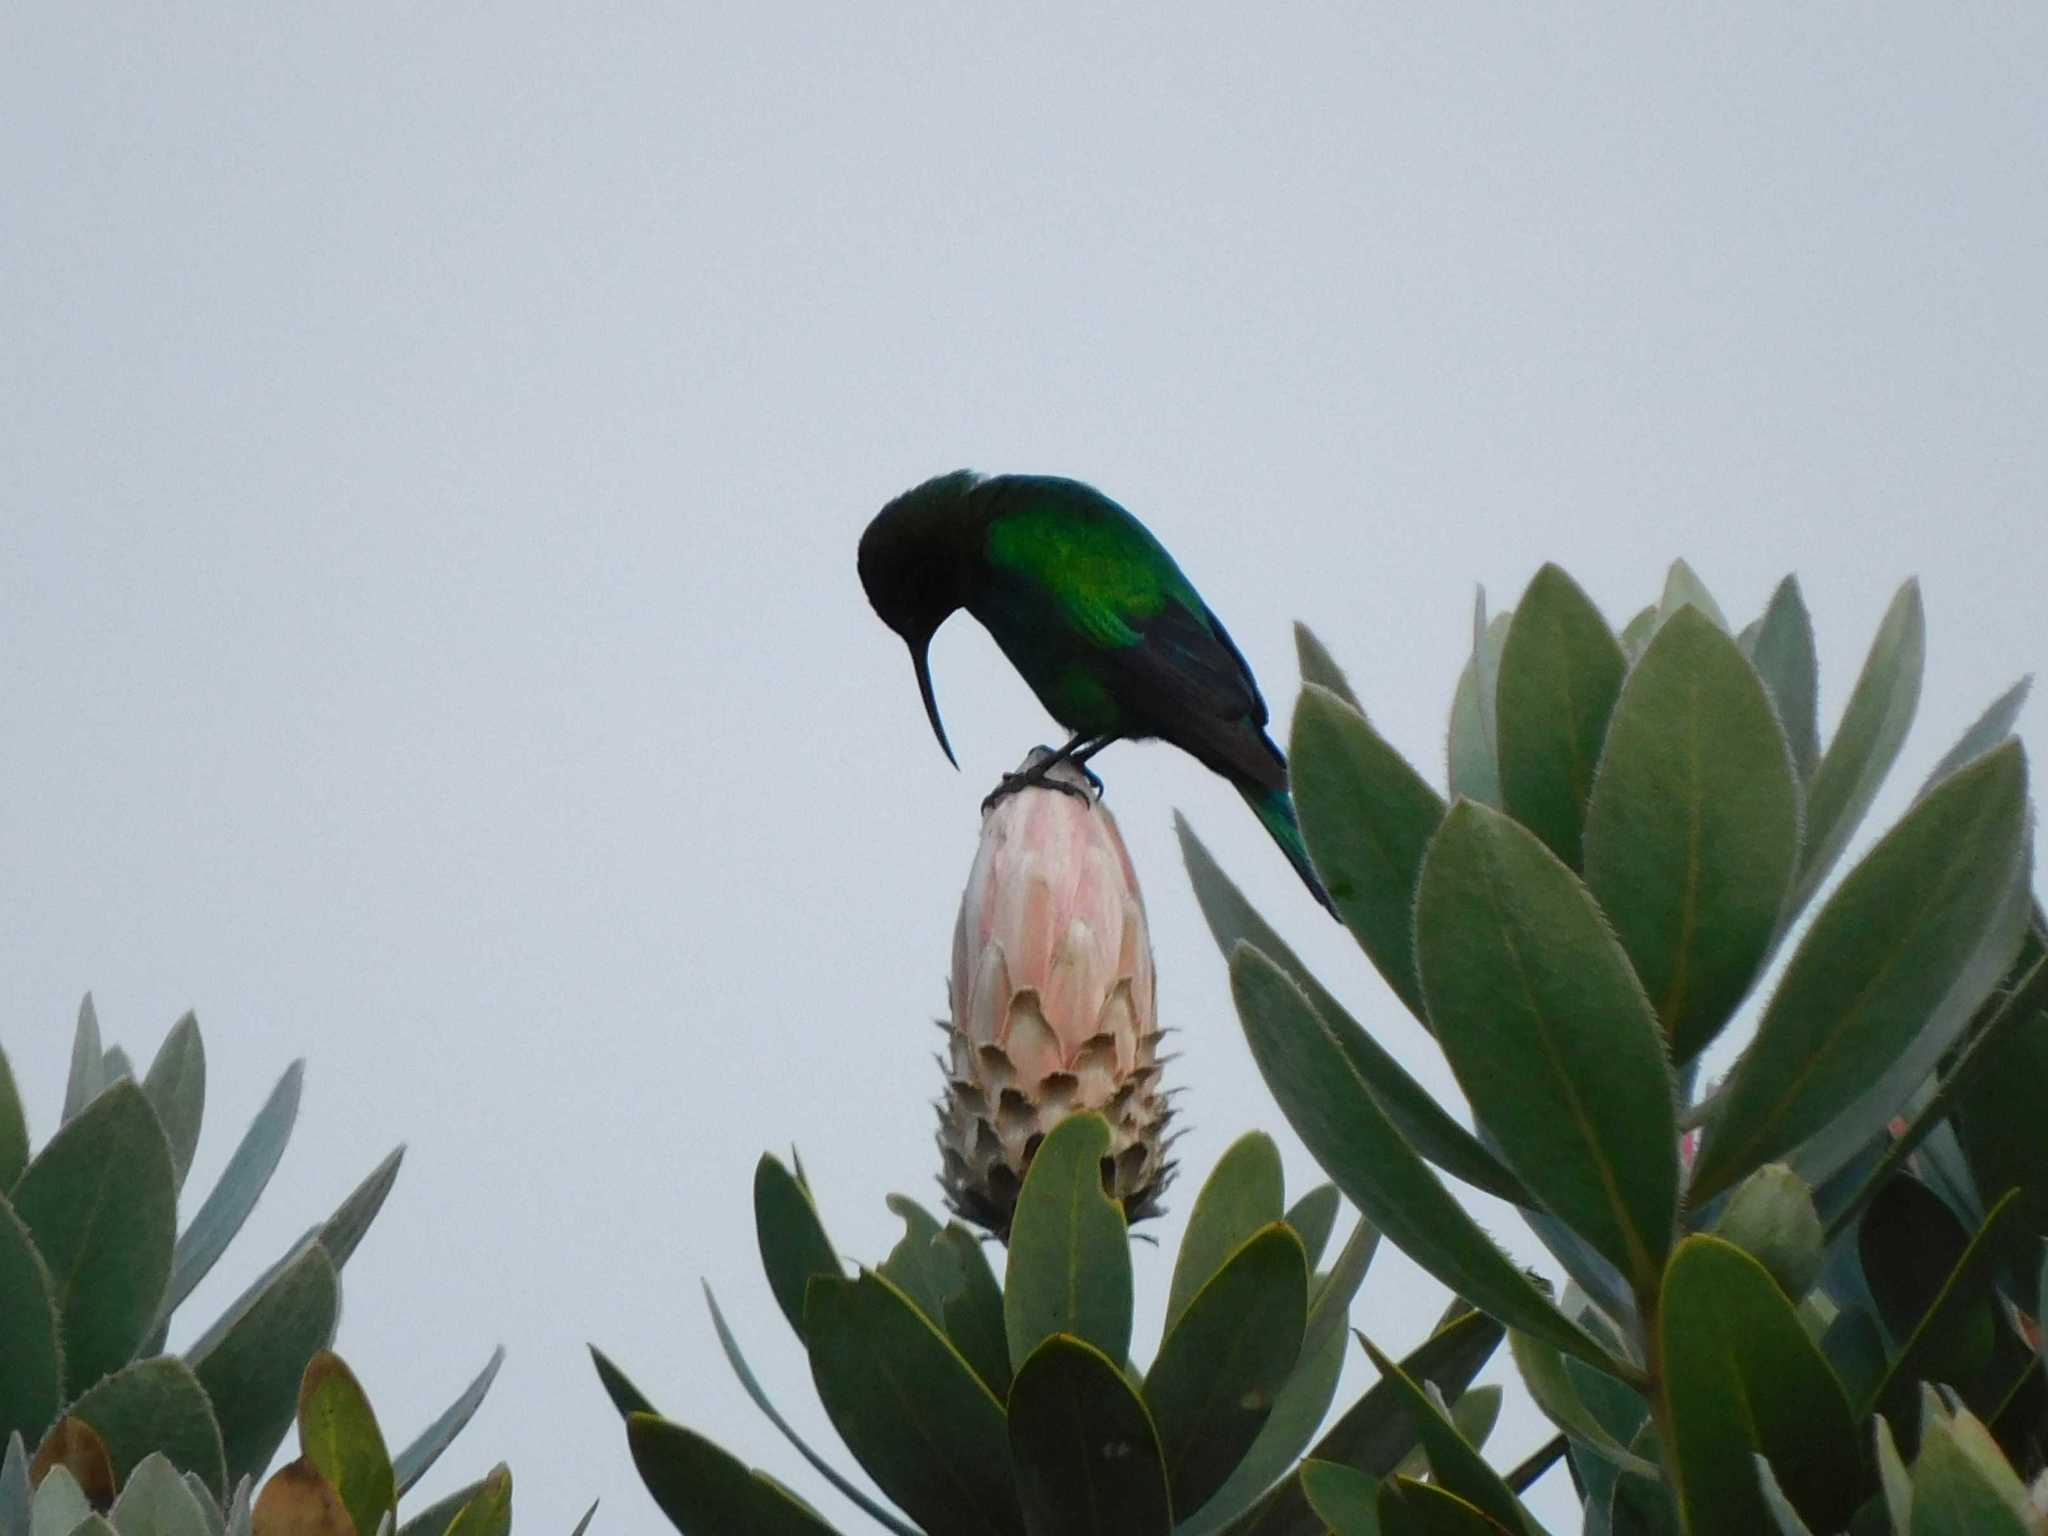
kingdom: Animalia
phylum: Chordata
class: Aves
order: Passeriformes
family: Nectariniidae
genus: Nectarinia
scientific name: Nectarinia famosa
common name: Malachite sunbird
